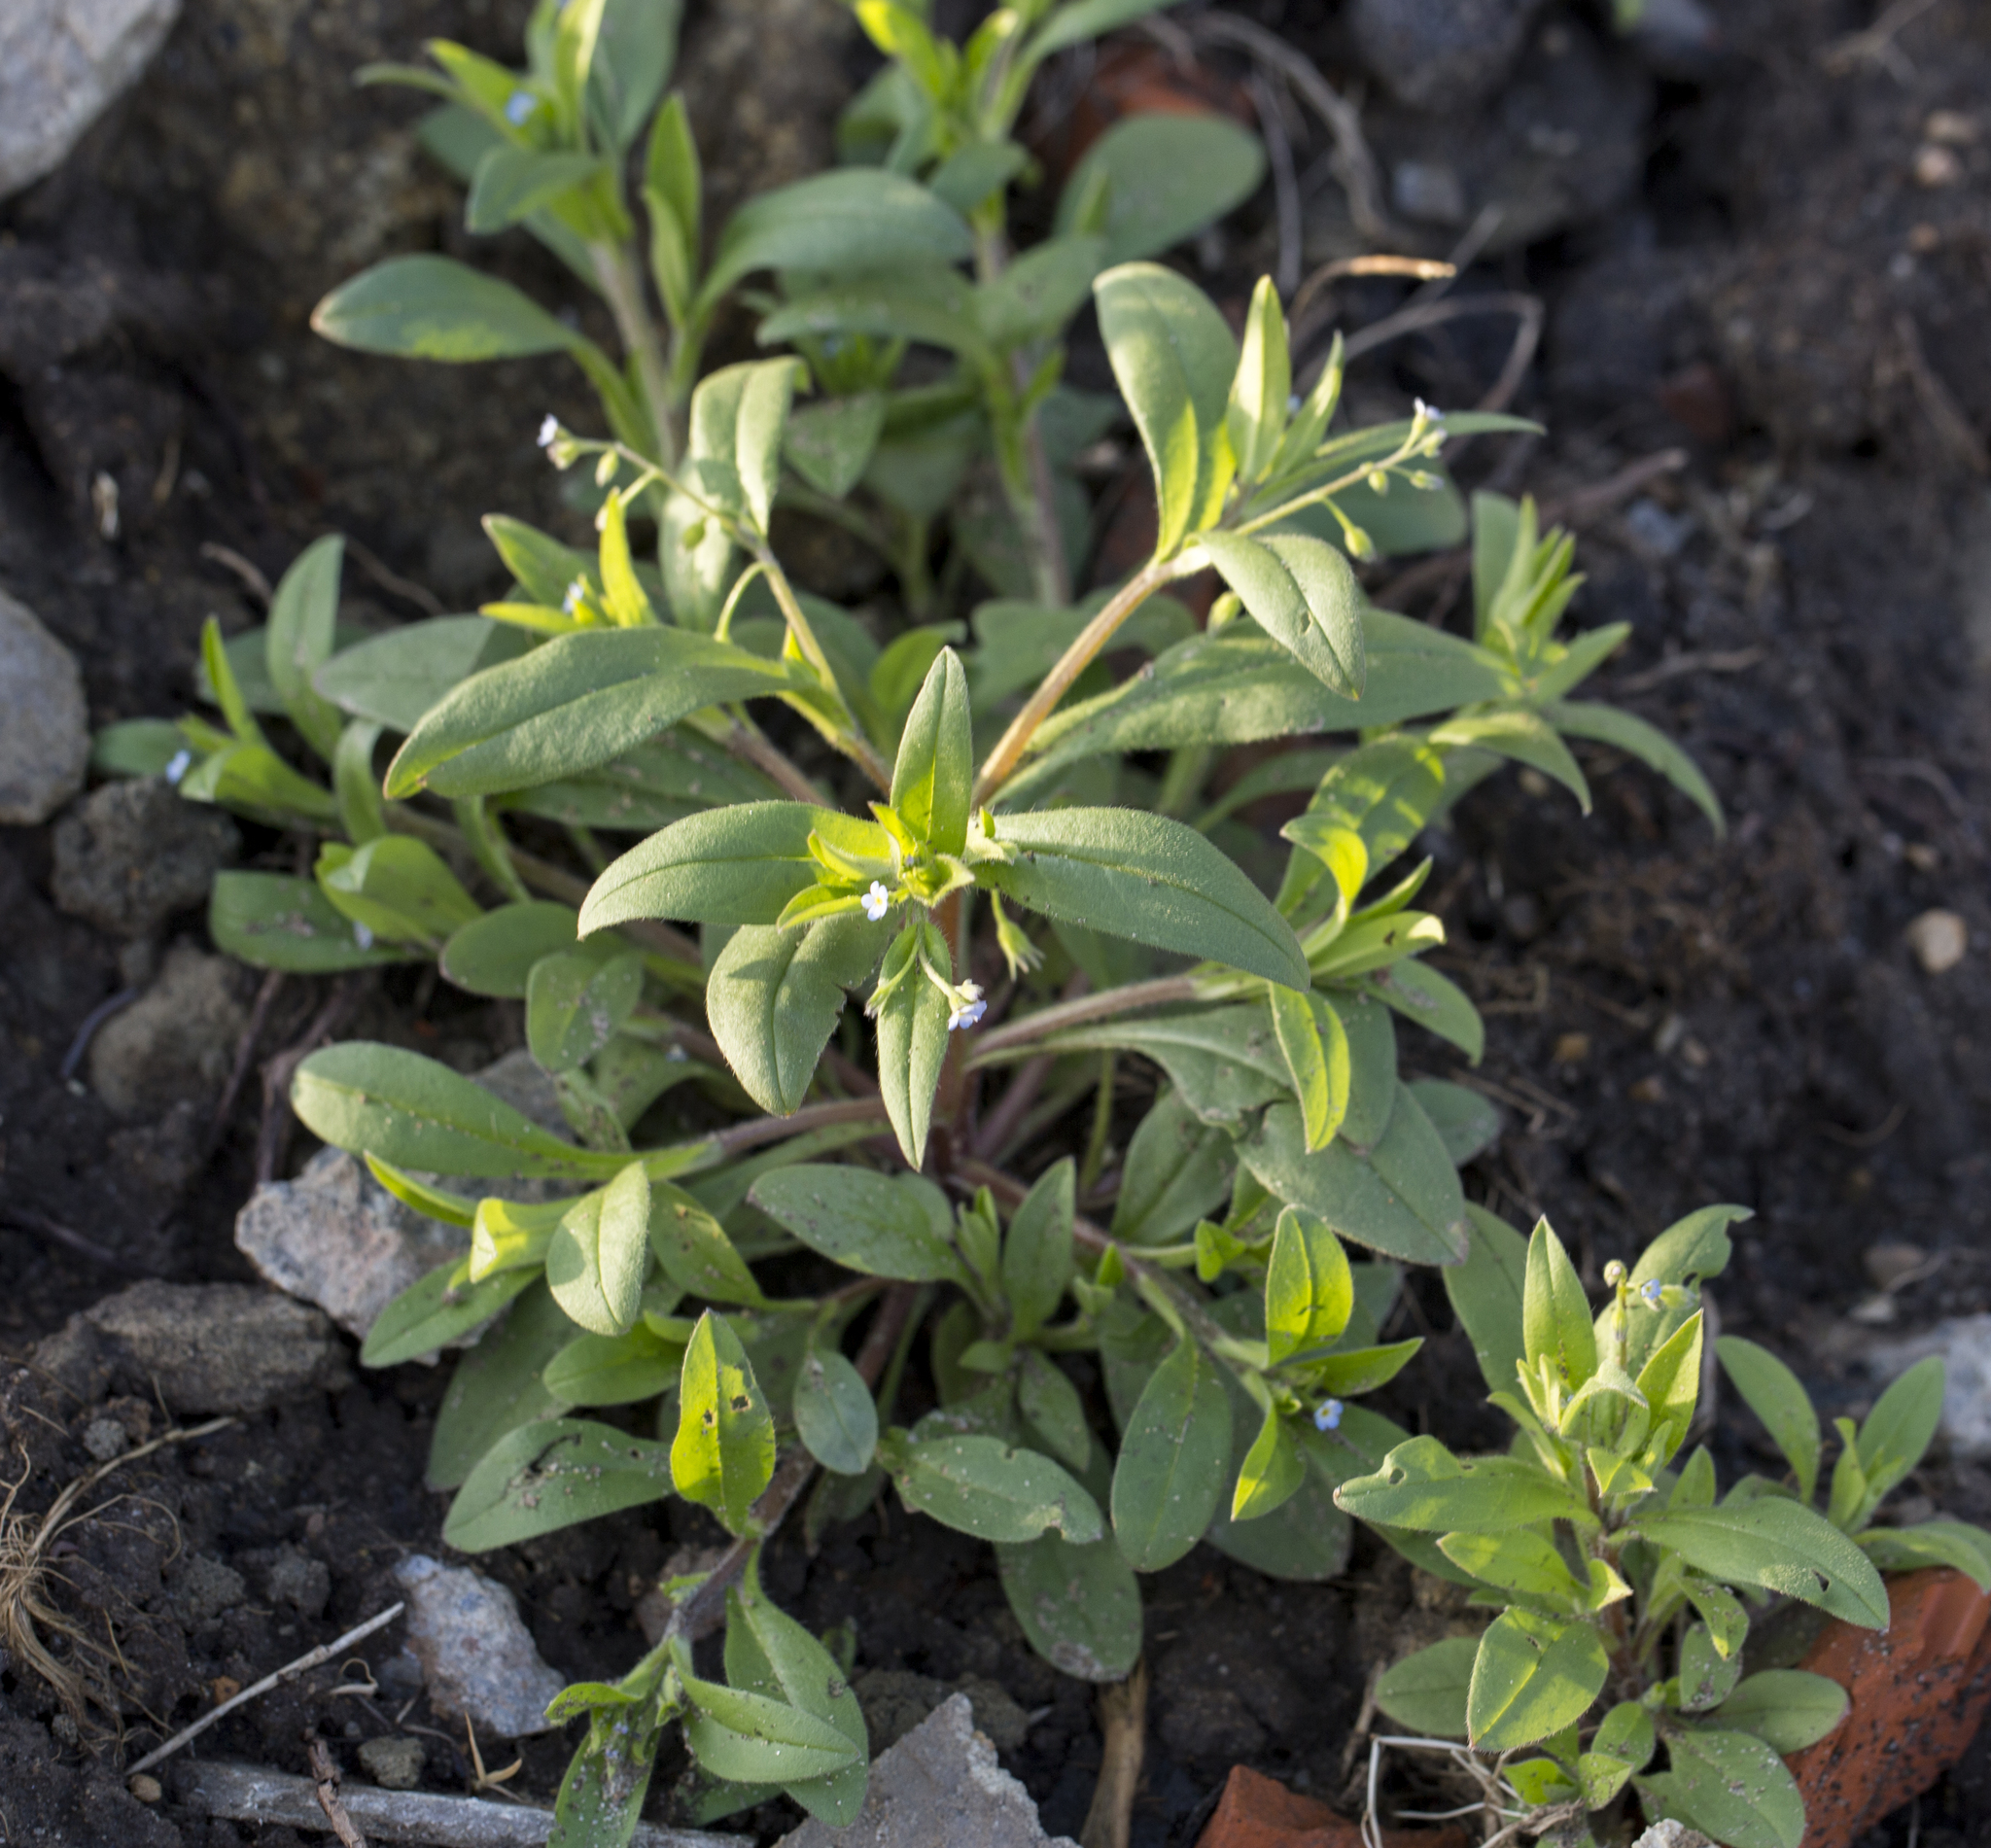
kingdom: Plantae
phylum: Tracheophyta
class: Magnoliopsida
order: Boraginales
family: Boraginaceae
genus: Myosotis
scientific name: Myosotis sparsiflora
